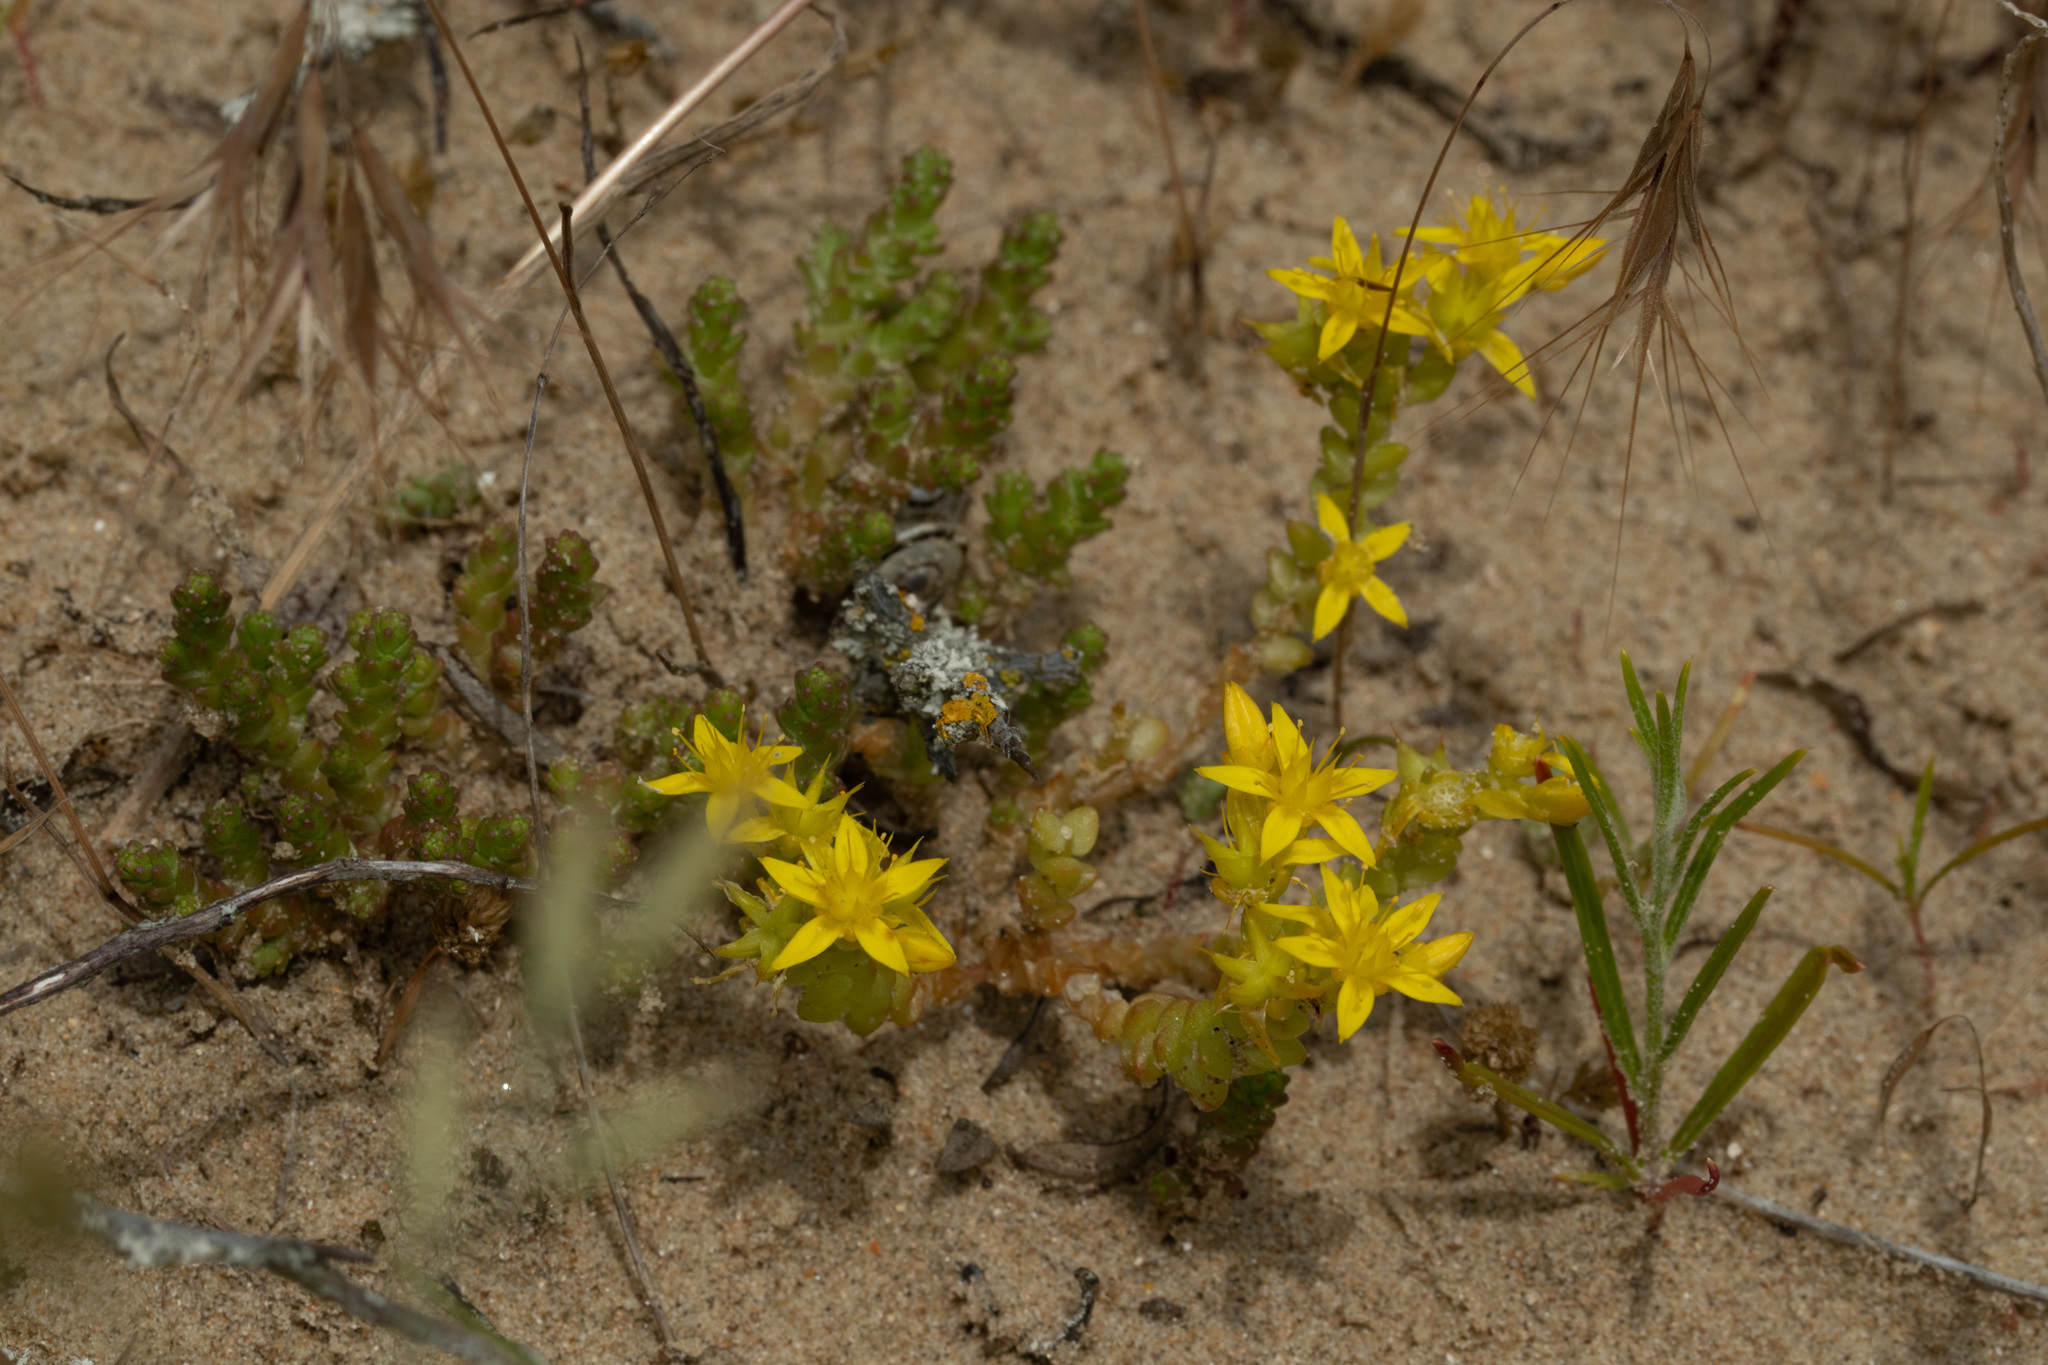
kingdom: Plantae
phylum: Tracheophyta
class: Magnoliopsida
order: Saxifragales
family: Crassulaceae
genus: Sedum
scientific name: Sedum acre
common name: Biting stonecrop
